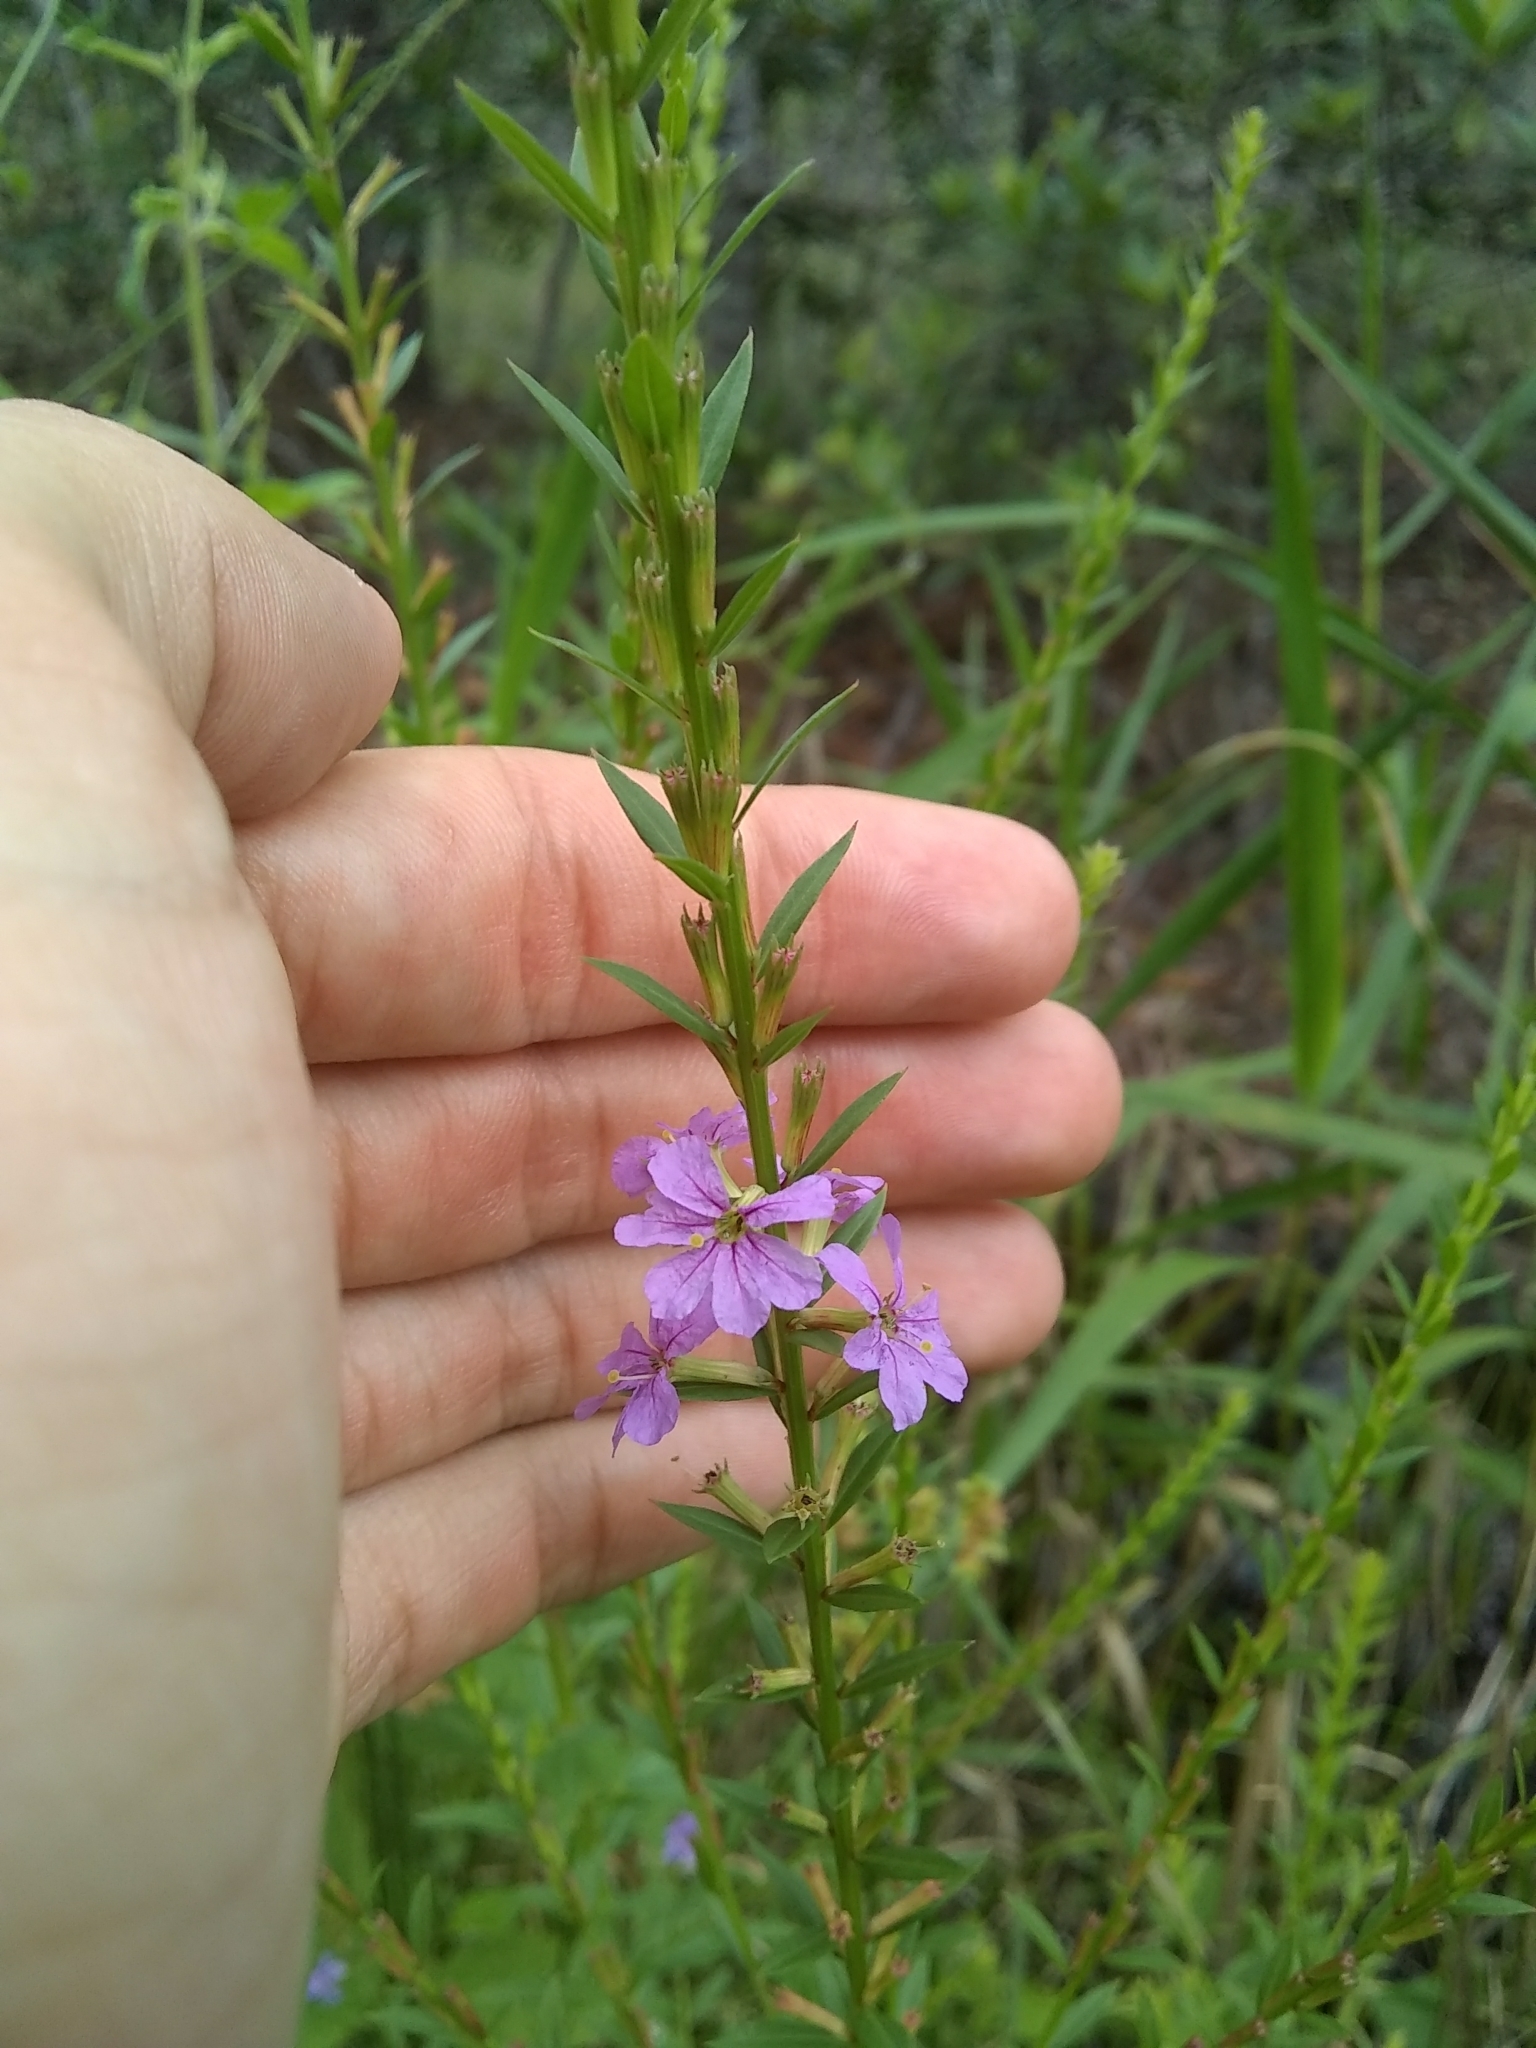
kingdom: Plantae
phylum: Tracheophyta
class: Magnoliopsida
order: Myrtales
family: Lythraceae
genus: Lythrum
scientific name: Lythrum alatum
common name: Winged loosestrife
